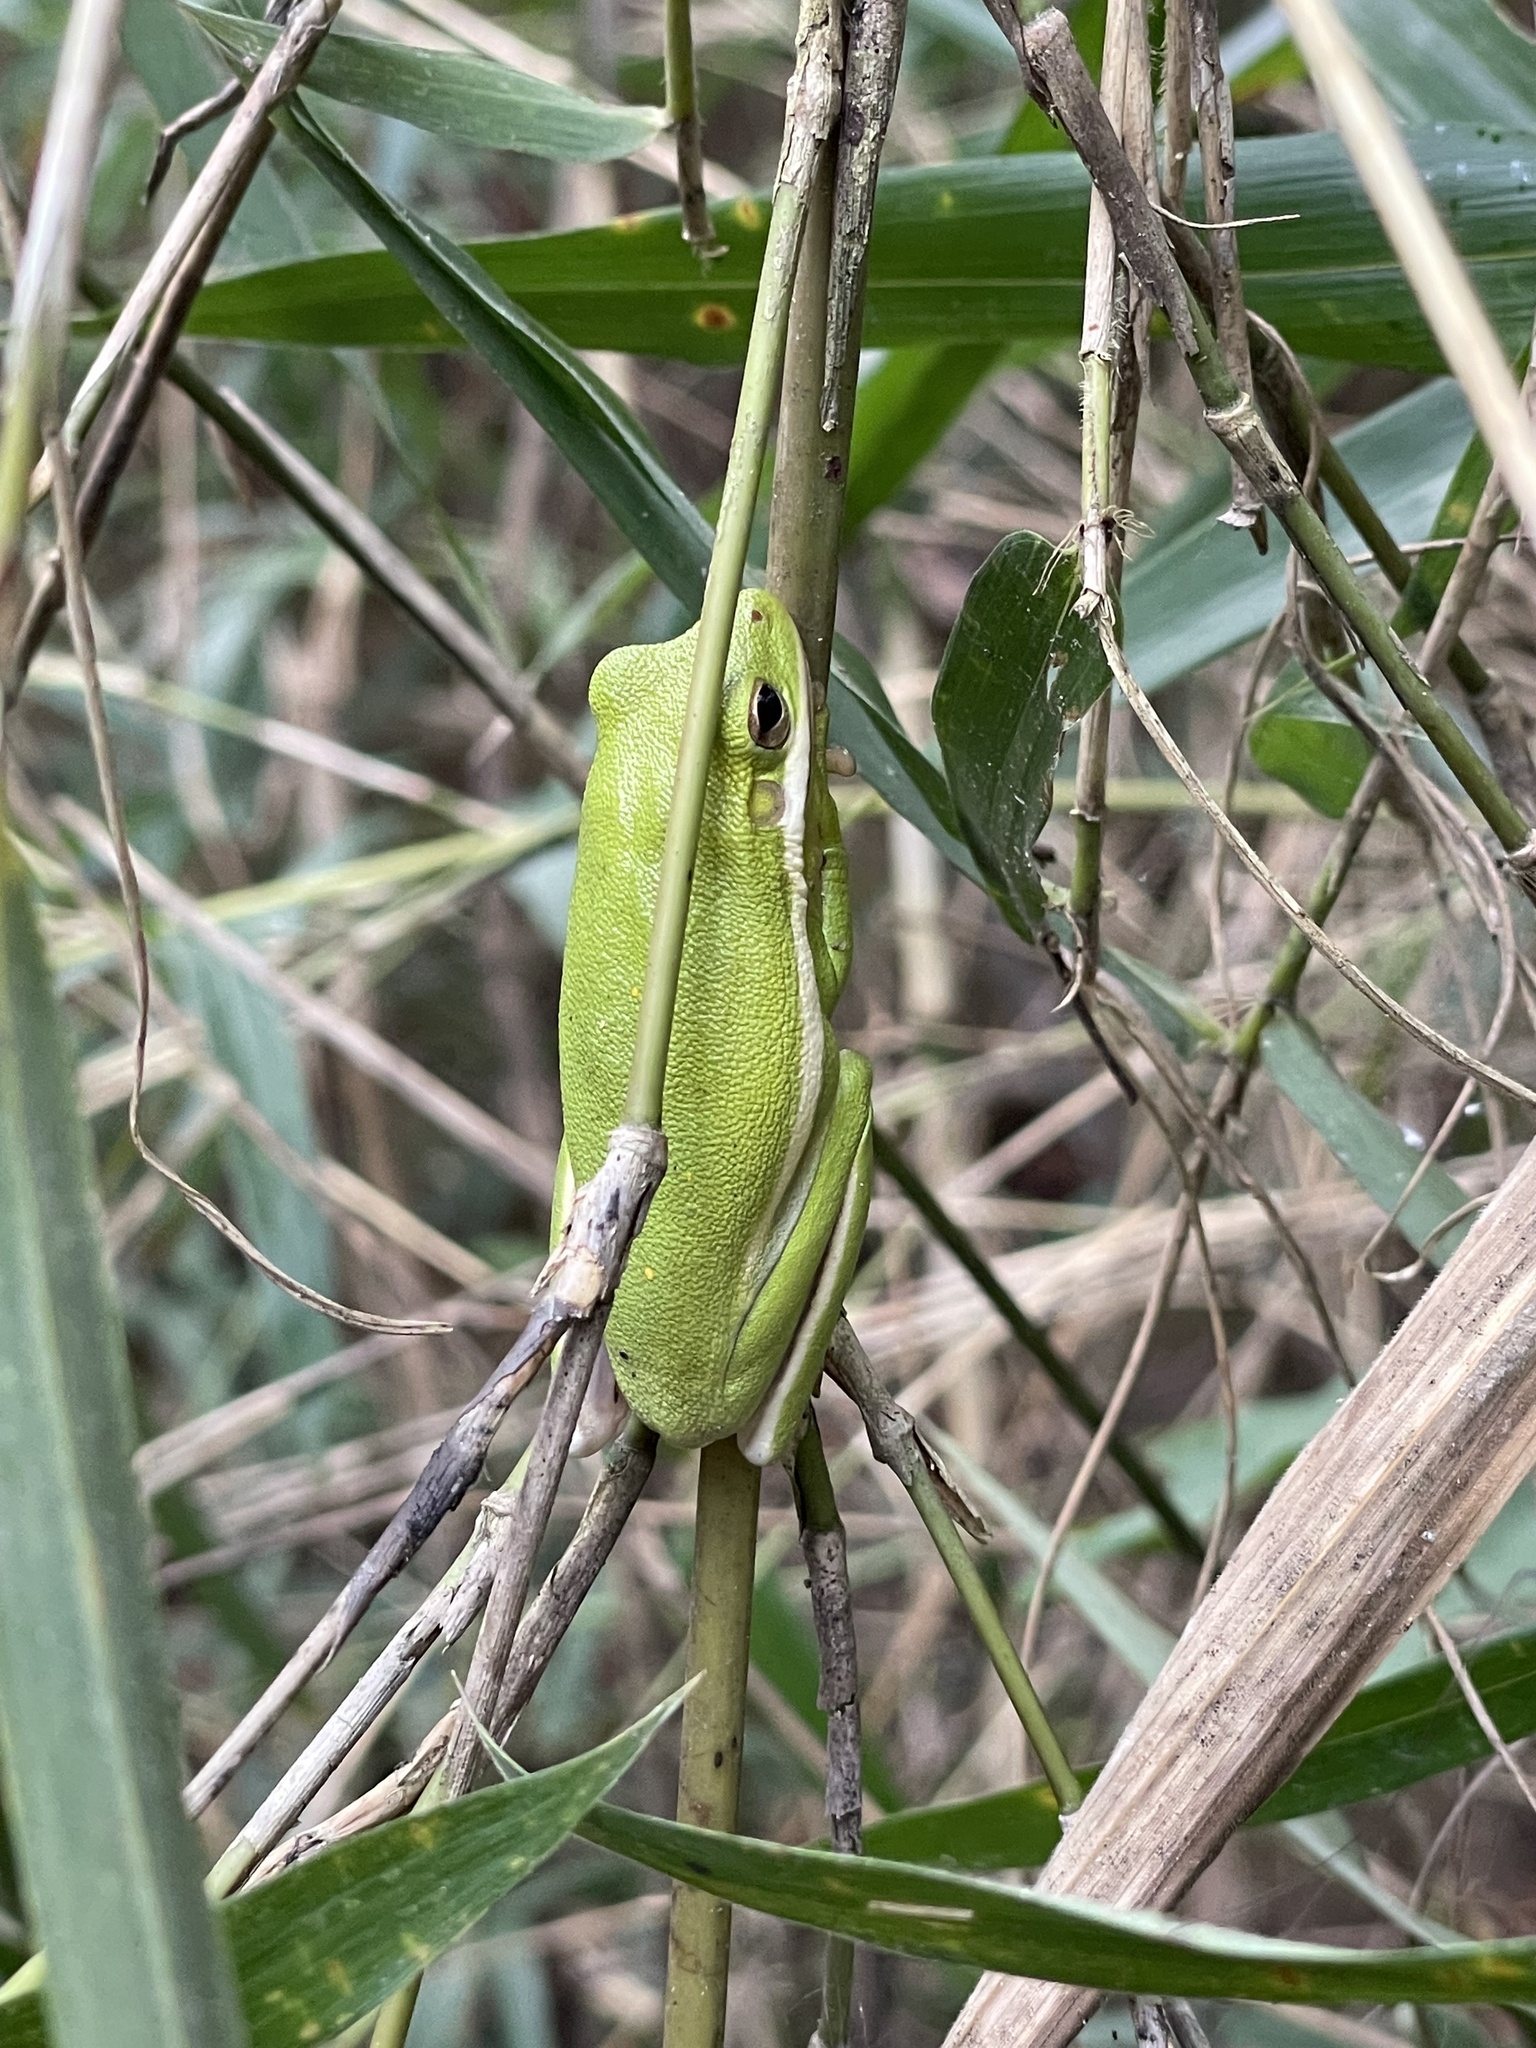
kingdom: Animalia
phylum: Chordata
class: Amphibia
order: Anura
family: Hylidae
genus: Dryophytes
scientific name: Dryophytes cinereus
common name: Green treefrog
